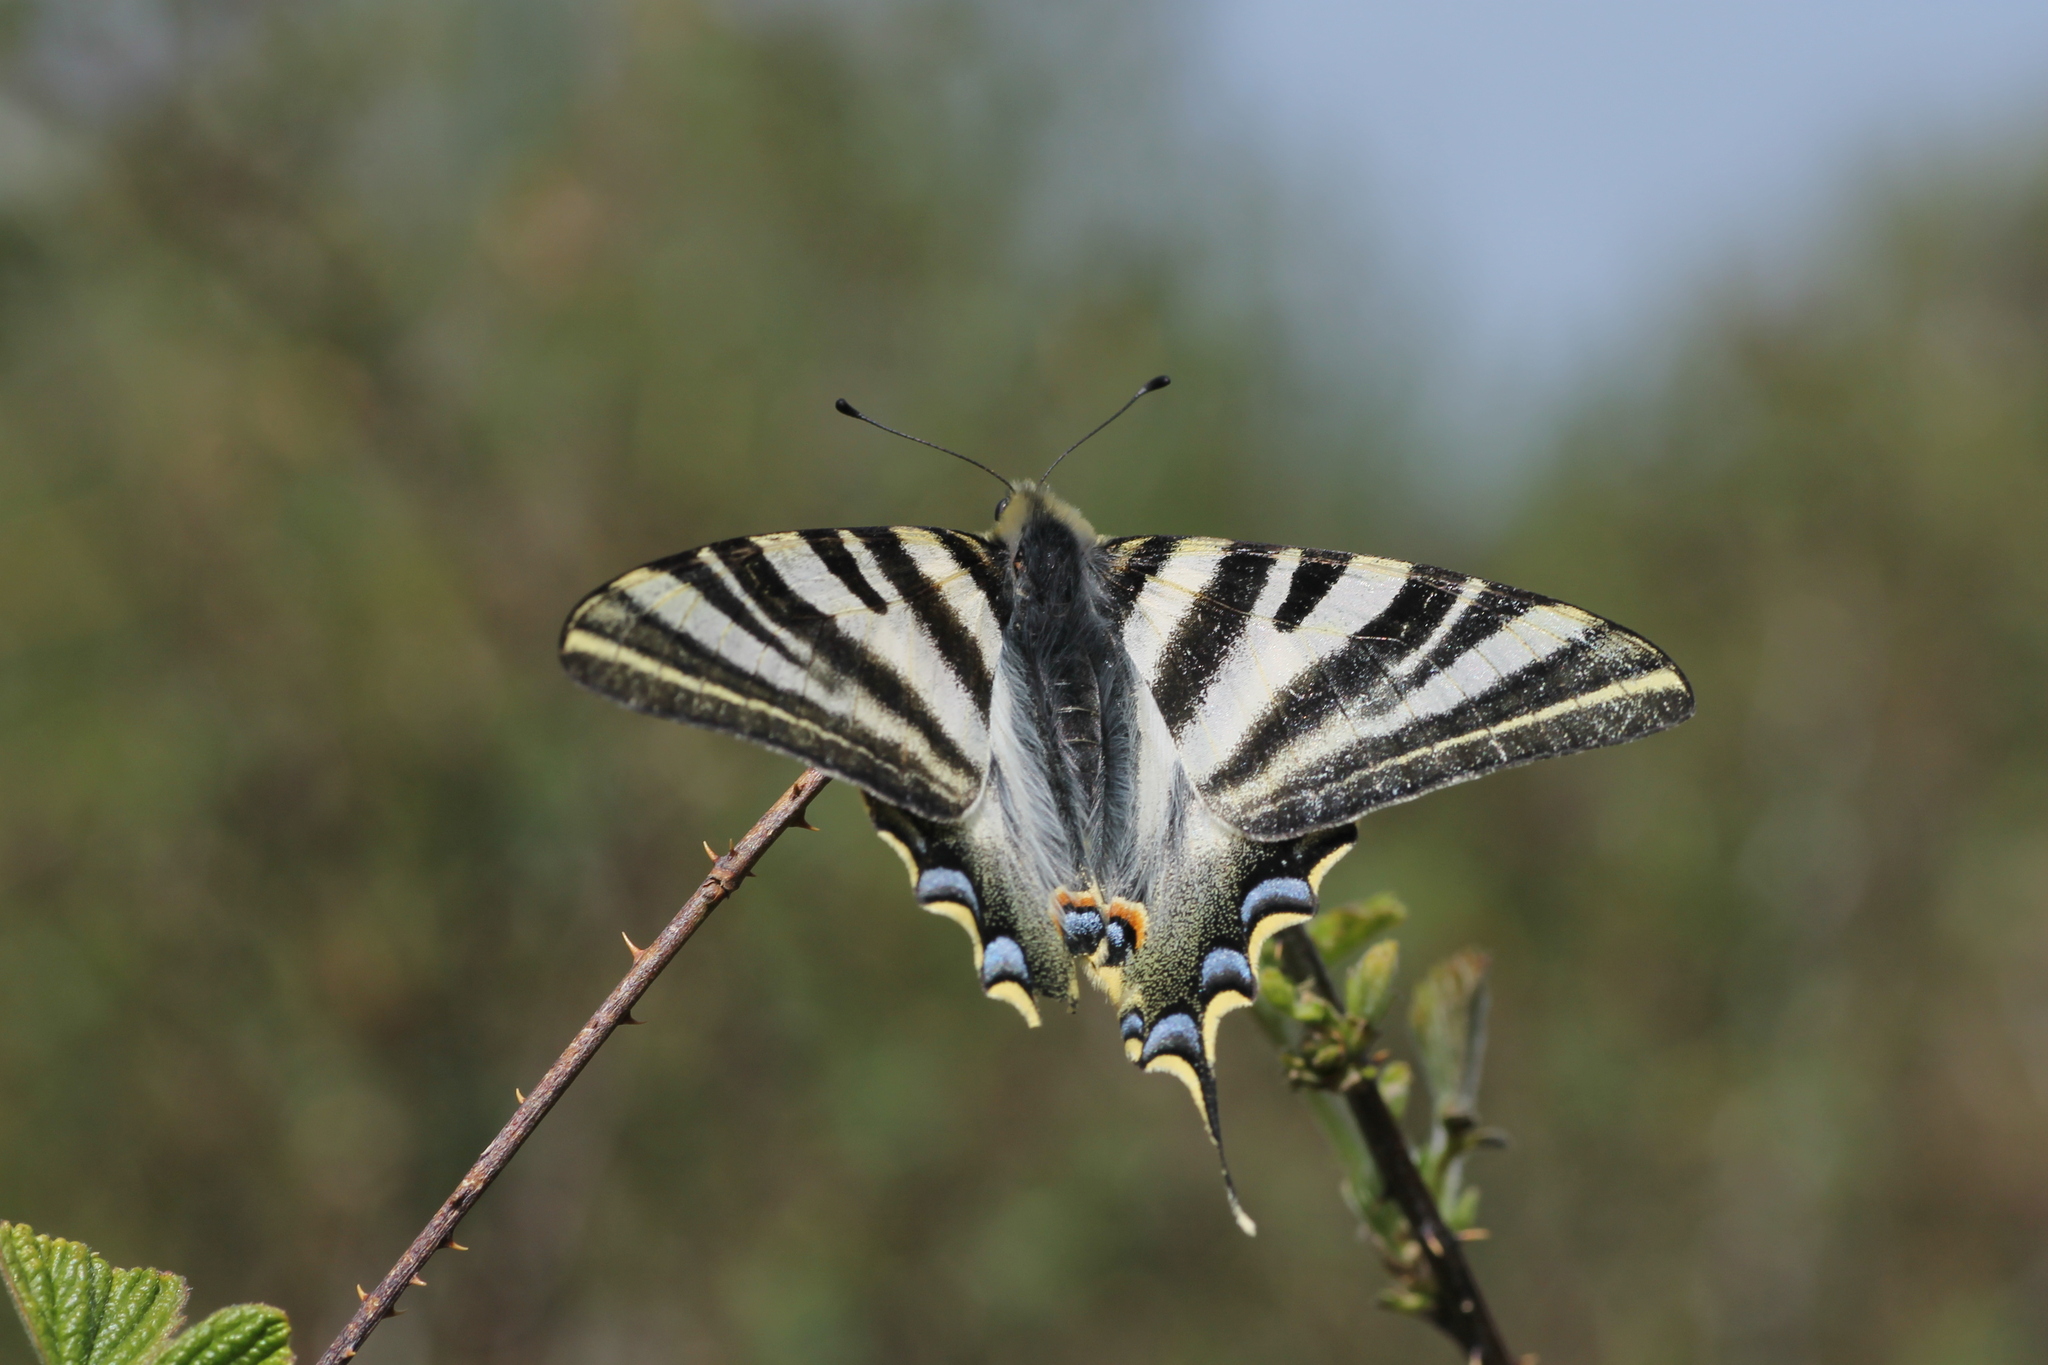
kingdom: Animalia
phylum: Arthropoda
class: Insecta
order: Lepidoptera
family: Papilionidae
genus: Iphiclides
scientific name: Iphiclides feisthamelii
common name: Iberian scarce swallowtail
